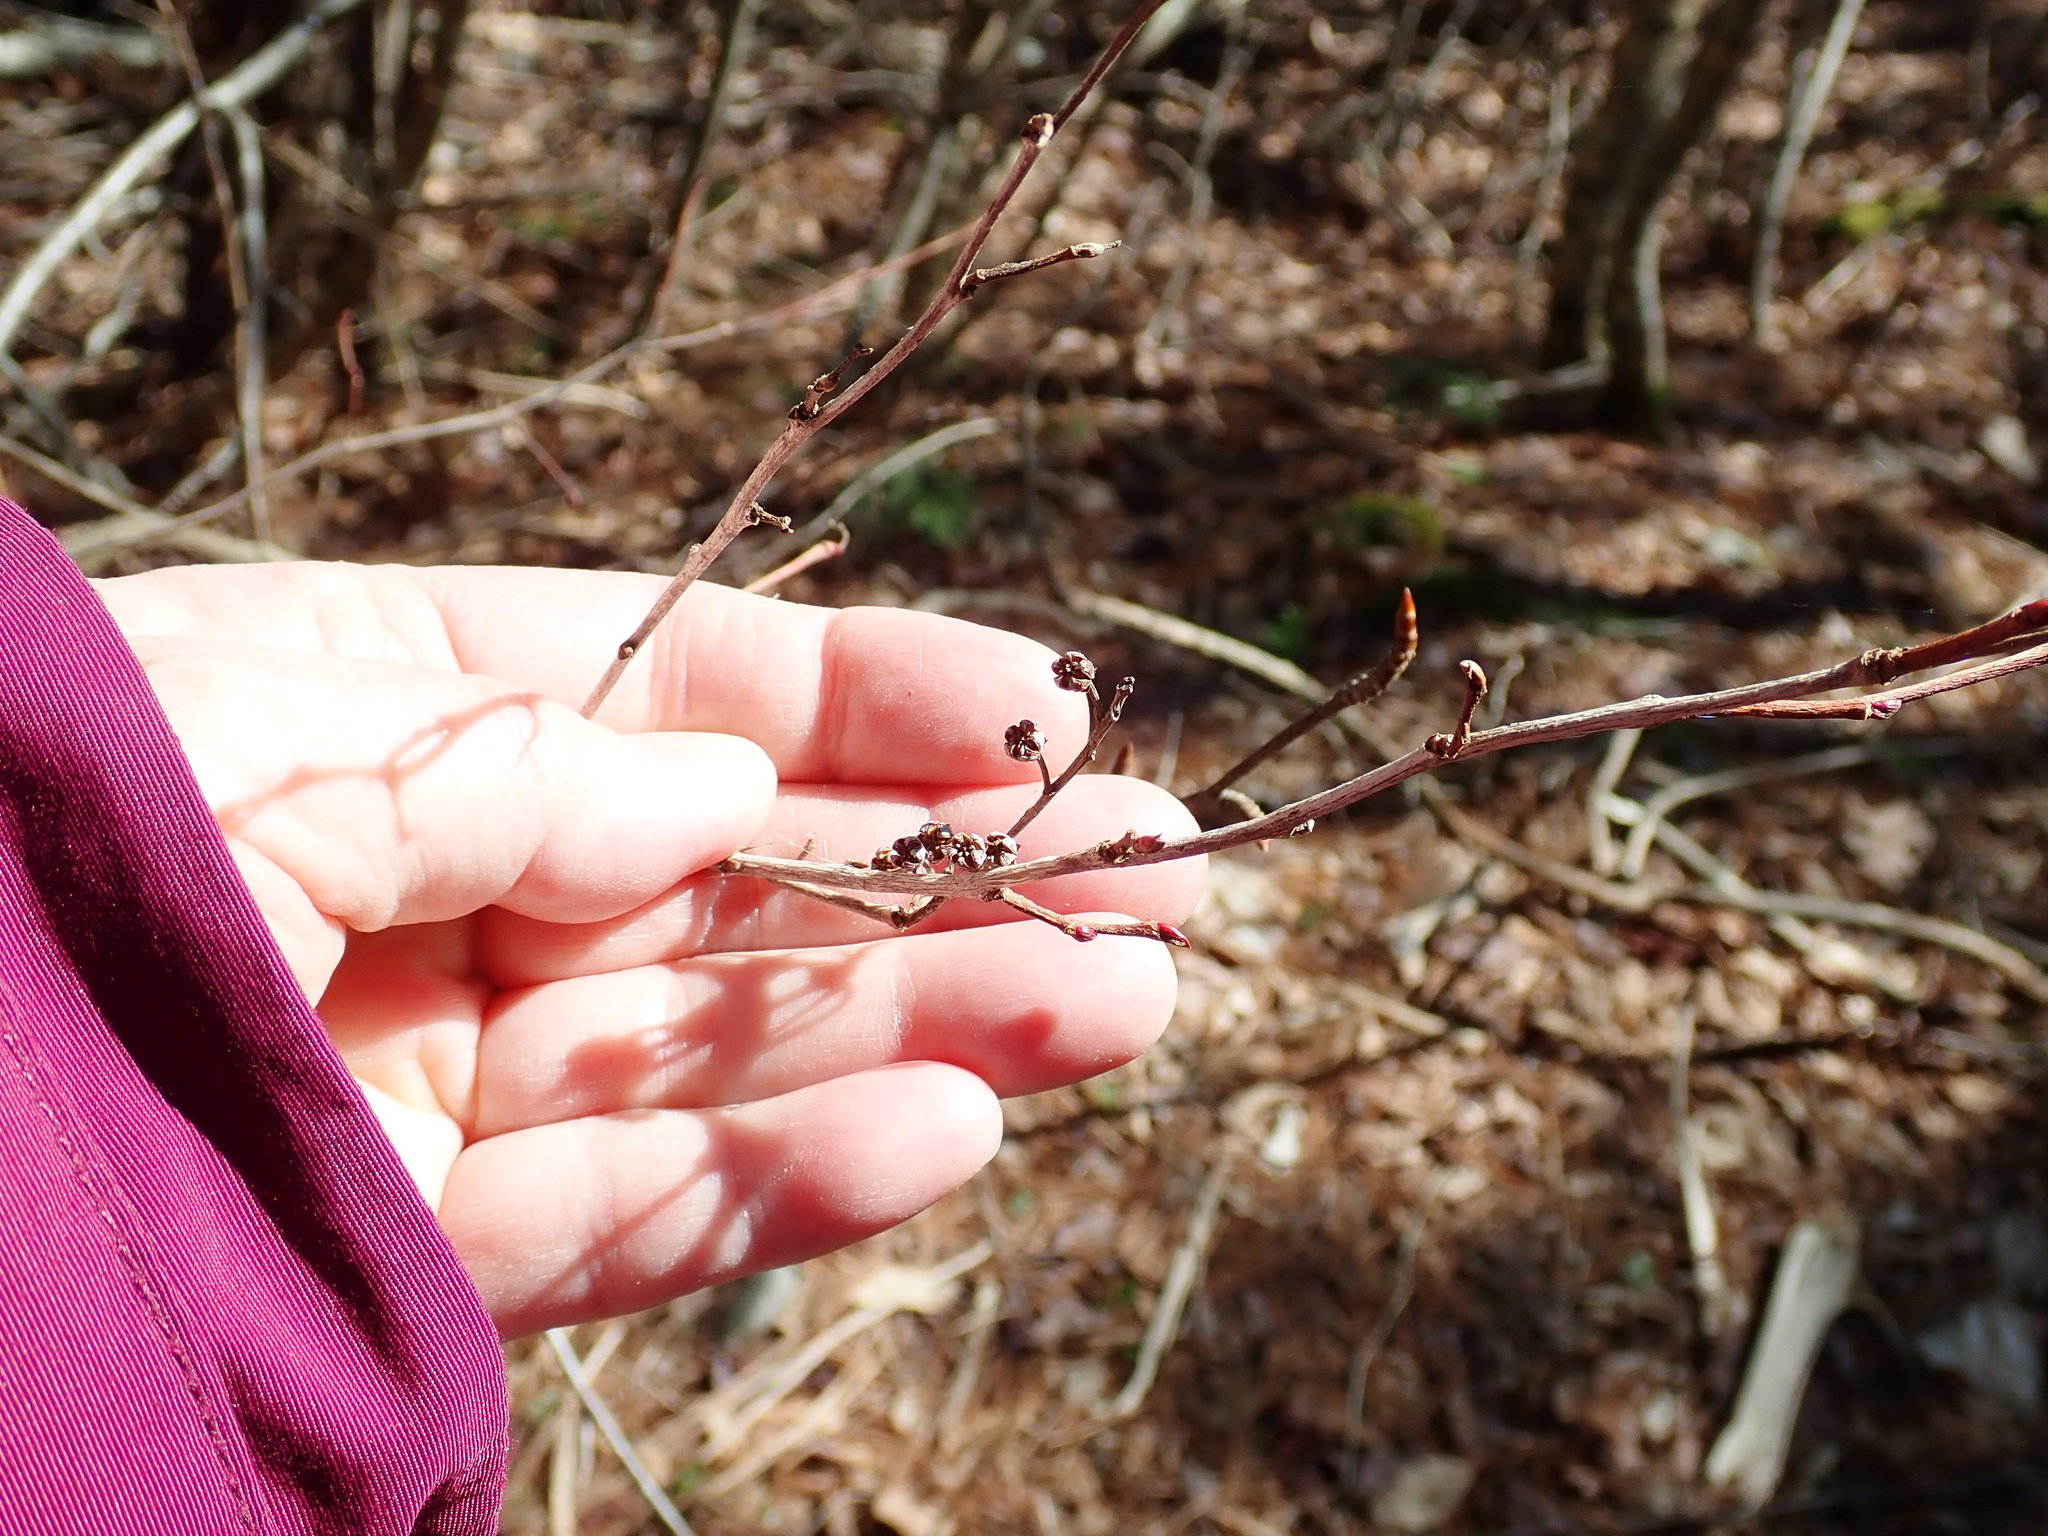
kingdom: Plantae
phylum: Tracheophyta
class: Magnoliopsida
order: Ericales
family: Ericaceae
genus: Lyonia
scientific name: Lyonia ligustrina
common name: Maleberry
